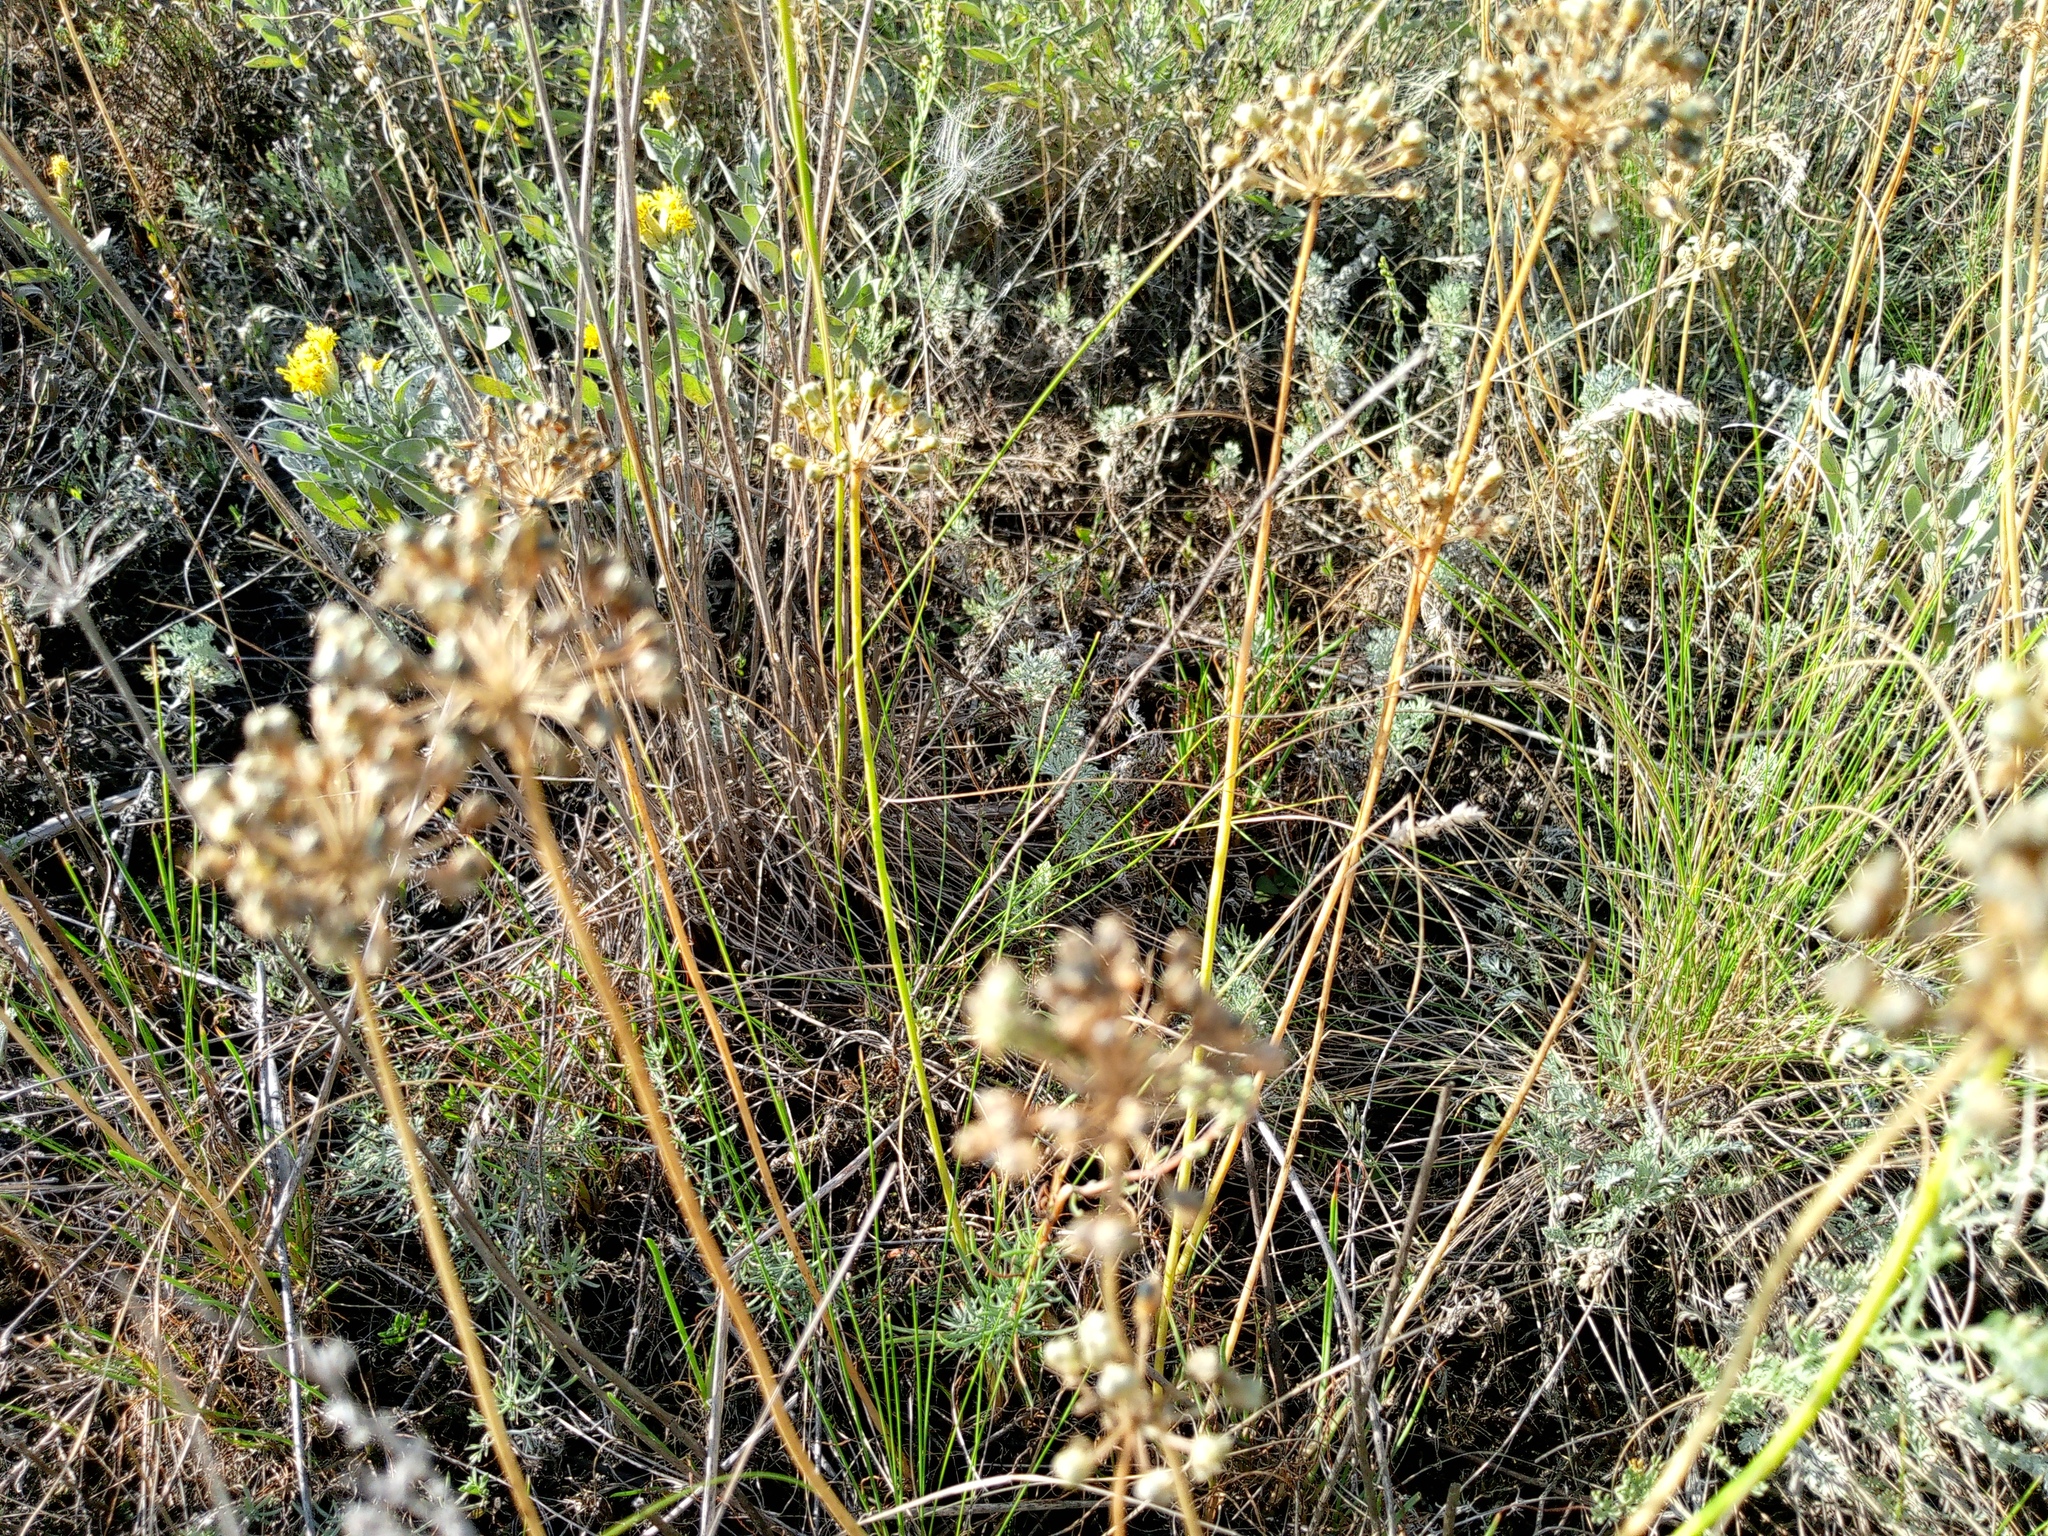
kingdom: Plantae
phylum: Tracheophyta
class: Liliopsida
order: Asparagales
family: Amaryllidaceae
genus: Allium
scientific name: Allium flavescens
